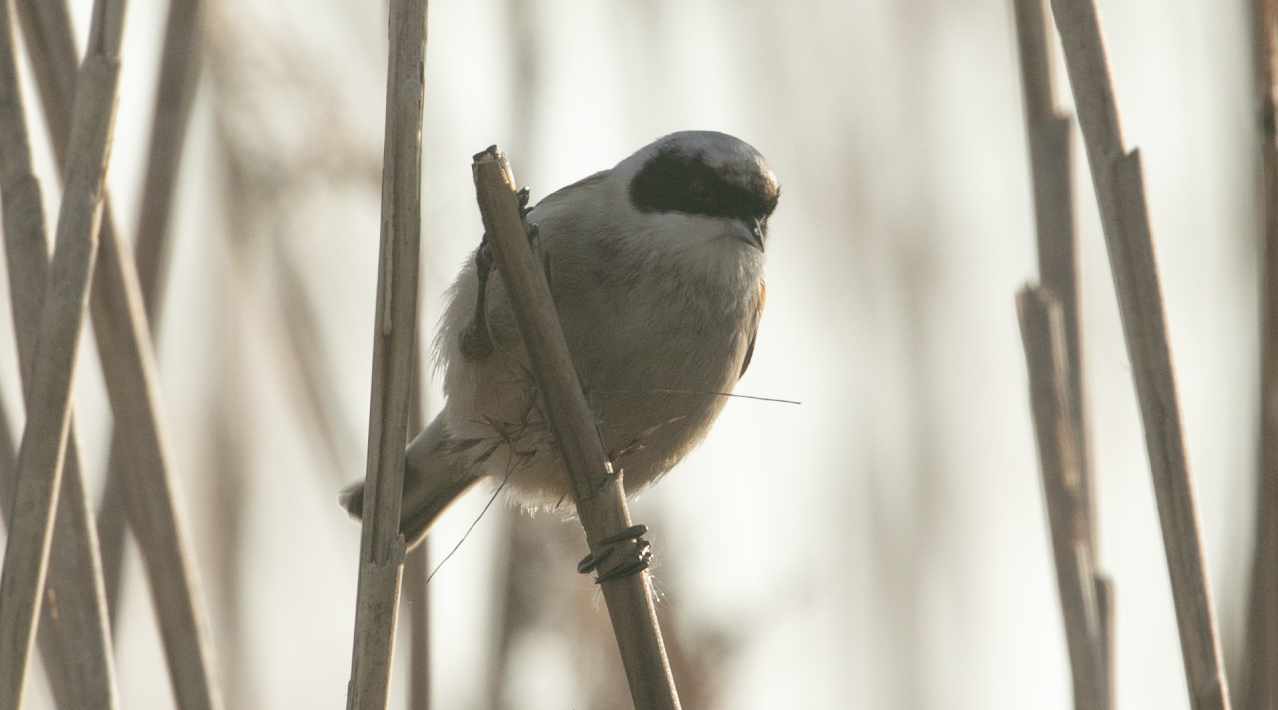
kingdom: Animalia
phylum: Chordata
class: Aves
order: Passeriformes
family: Remizidae
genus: Remiz
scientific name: Remiz pendulinus
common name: Eurasian penduline tit
